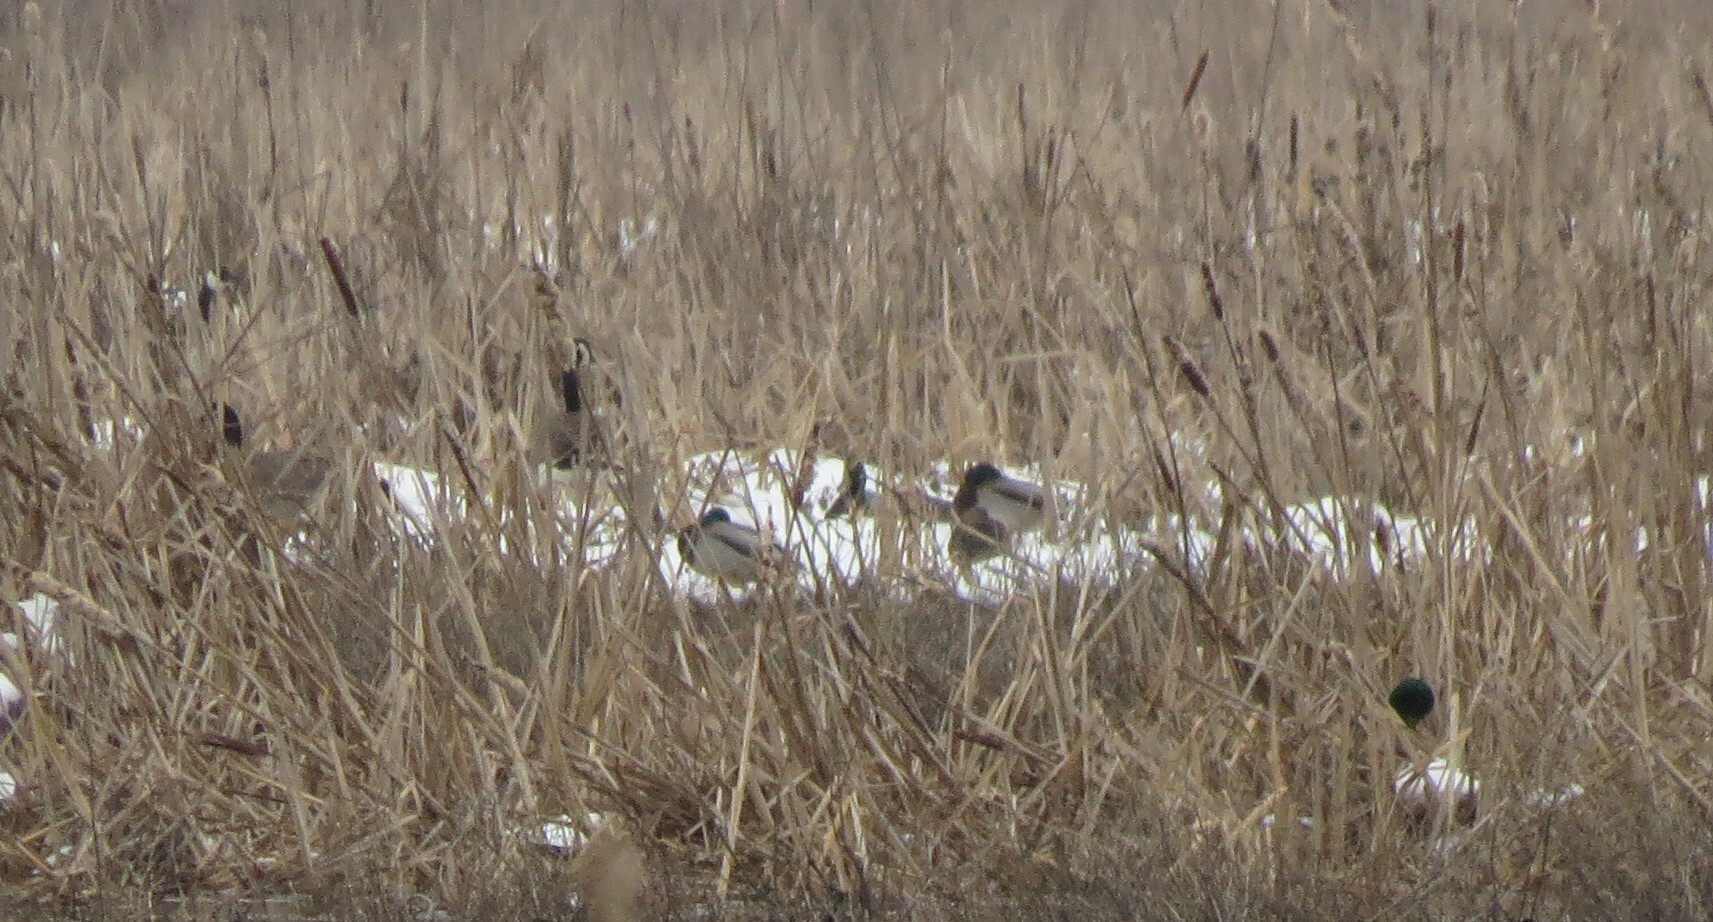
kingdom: Animalia
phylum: Chordata
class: Aves
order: Anseriformes
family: Anatidae
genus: Anas
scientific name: Anas platyrhynchos
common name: Mallard
